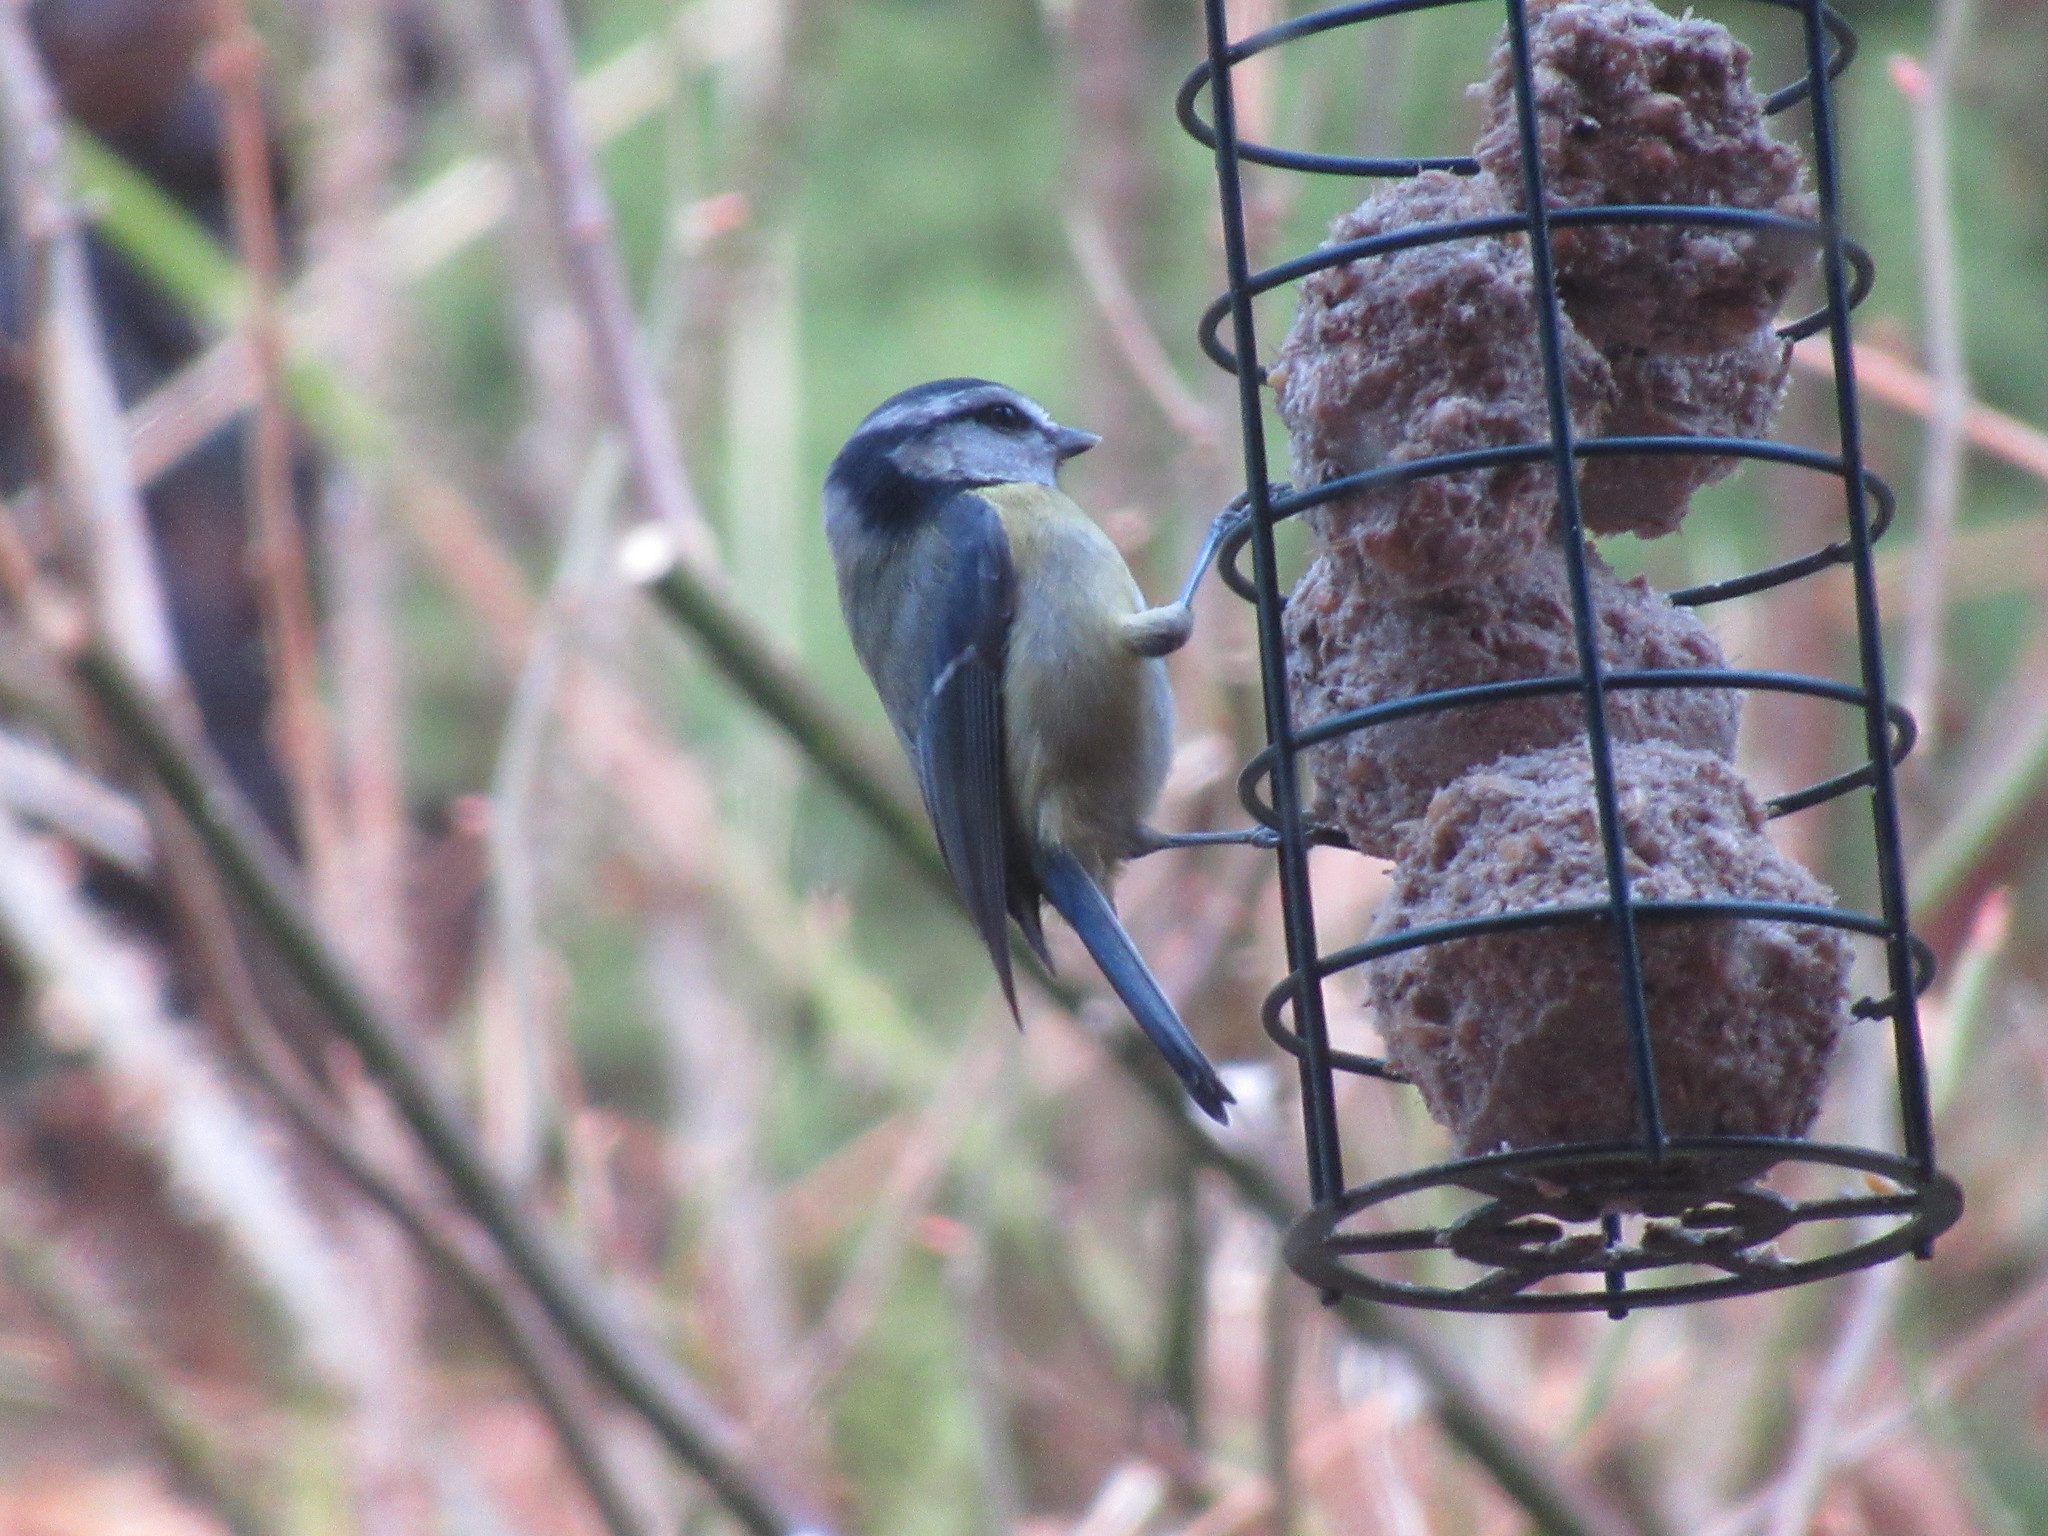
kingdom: Animalia
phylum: Chordata
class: Aves
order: Passeriformes
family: Paridae
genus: Cyanistes
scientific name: Cyanistes caeruleus
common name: Eurasian blue tit
